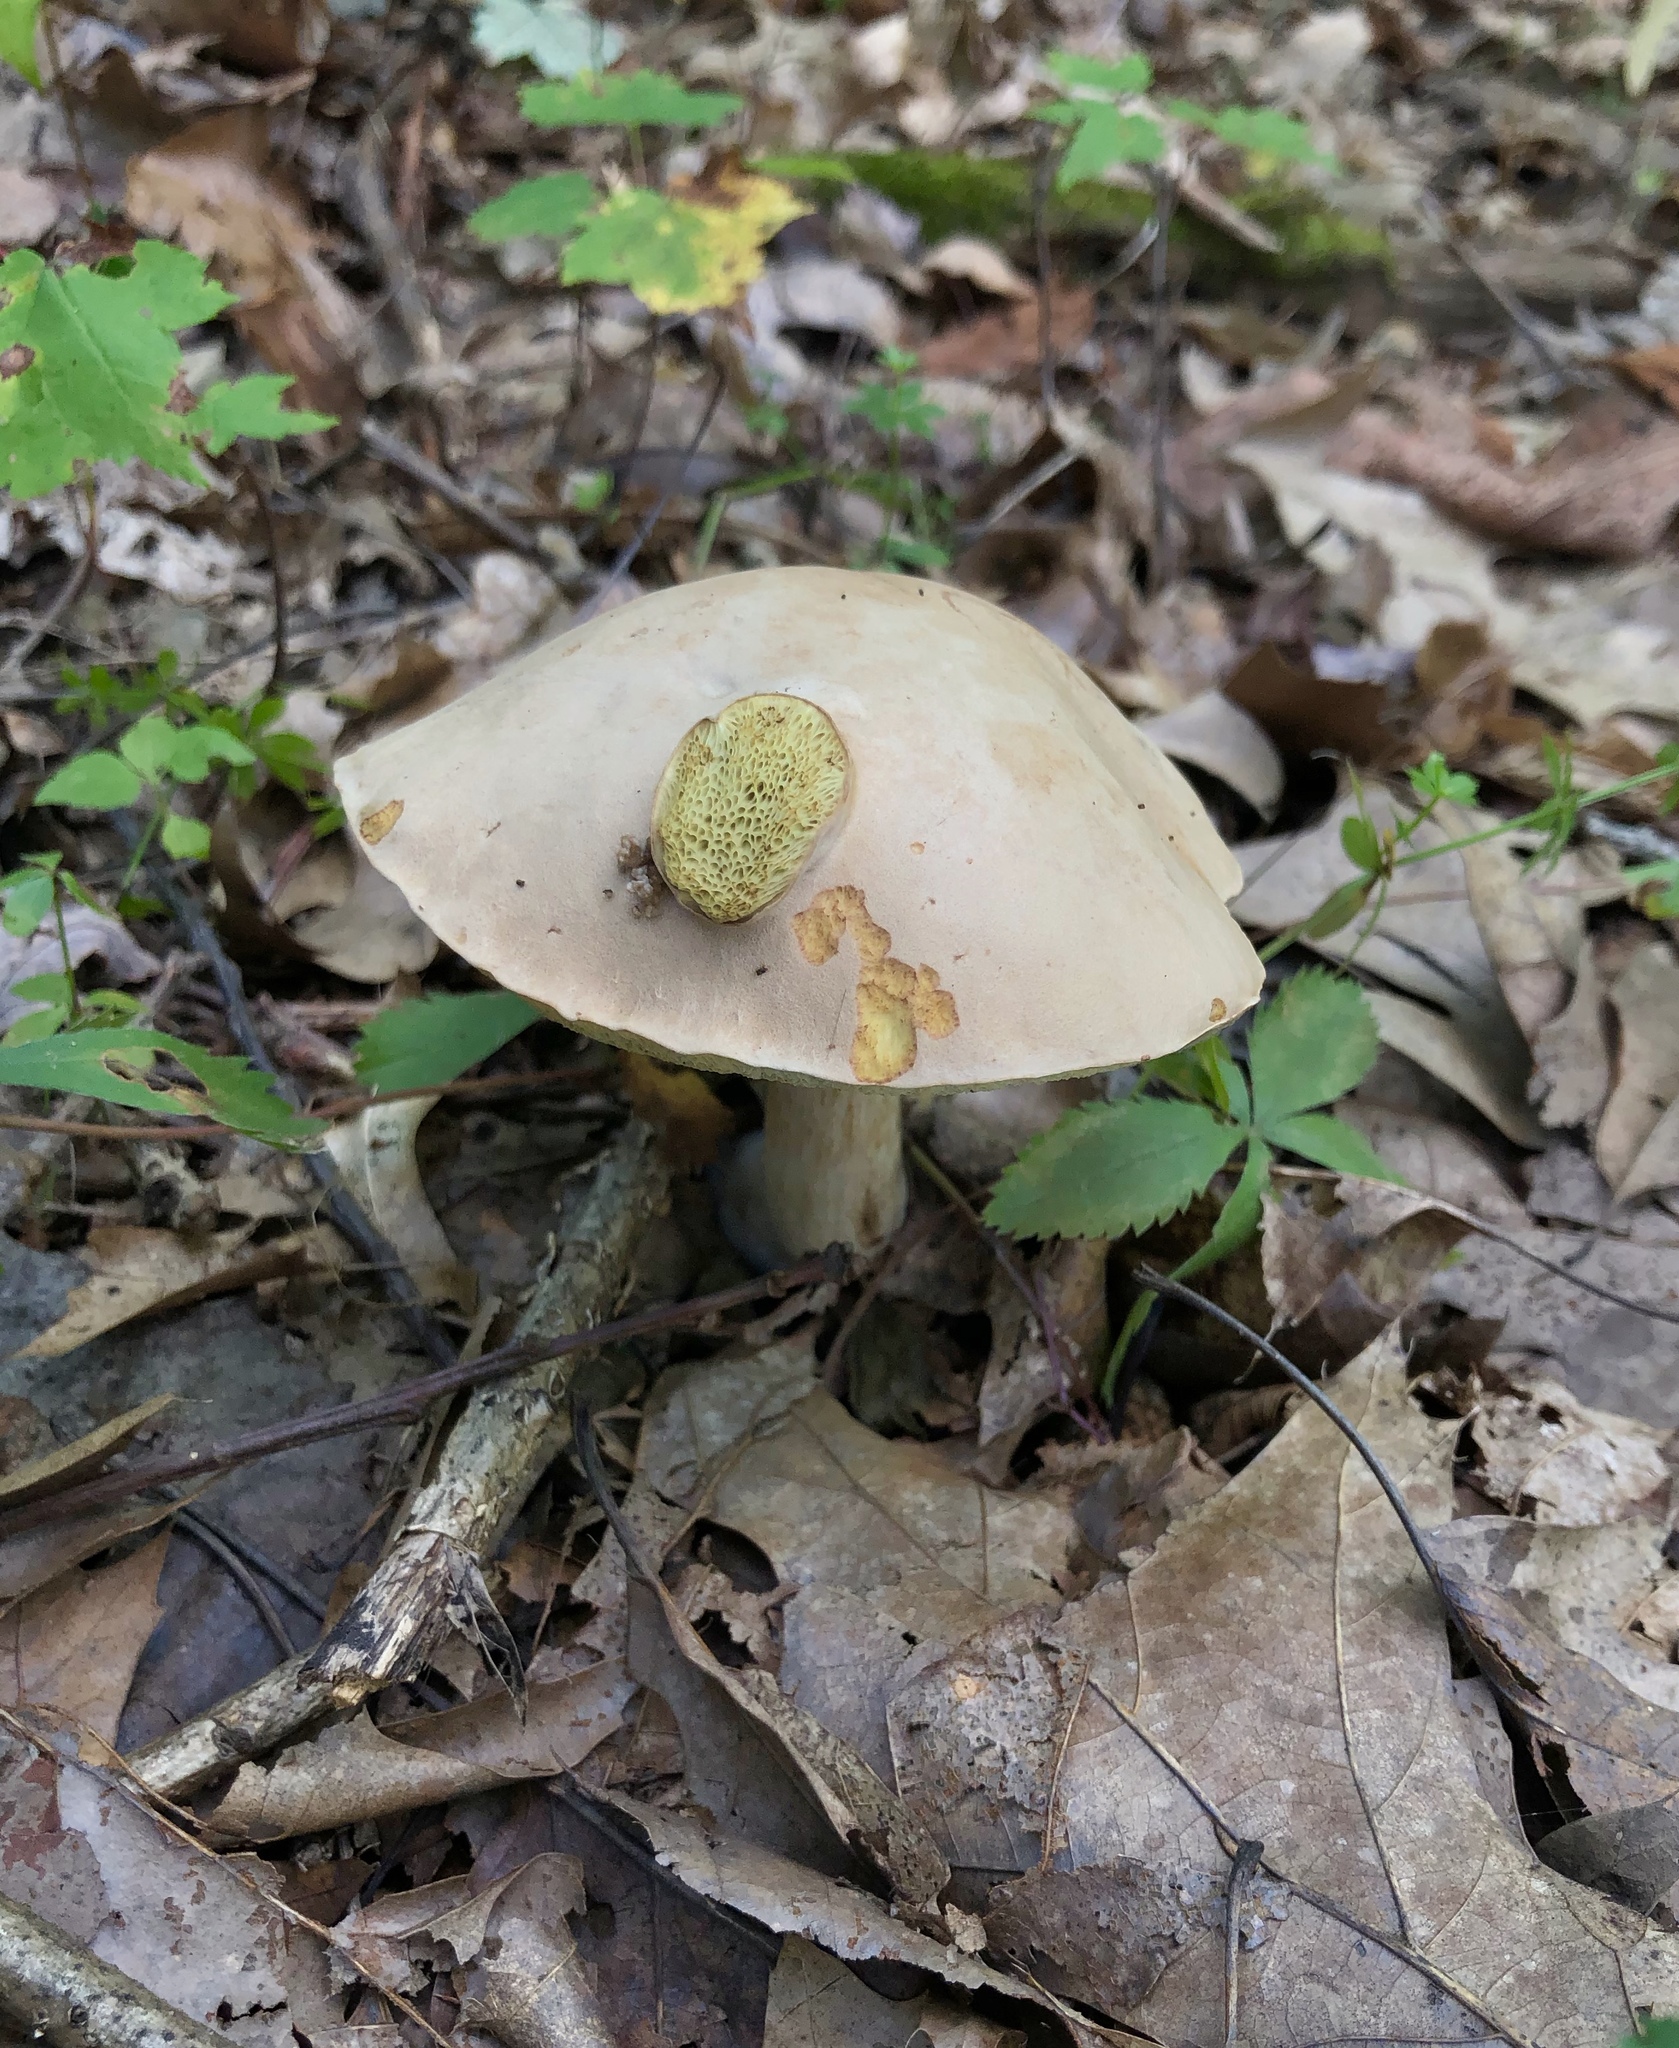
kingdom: Fungi
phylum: Basidiomycota
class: Agaricomycetes
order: Boletales
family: Boletaceae
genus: Imleria
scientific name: Imleria pallida
